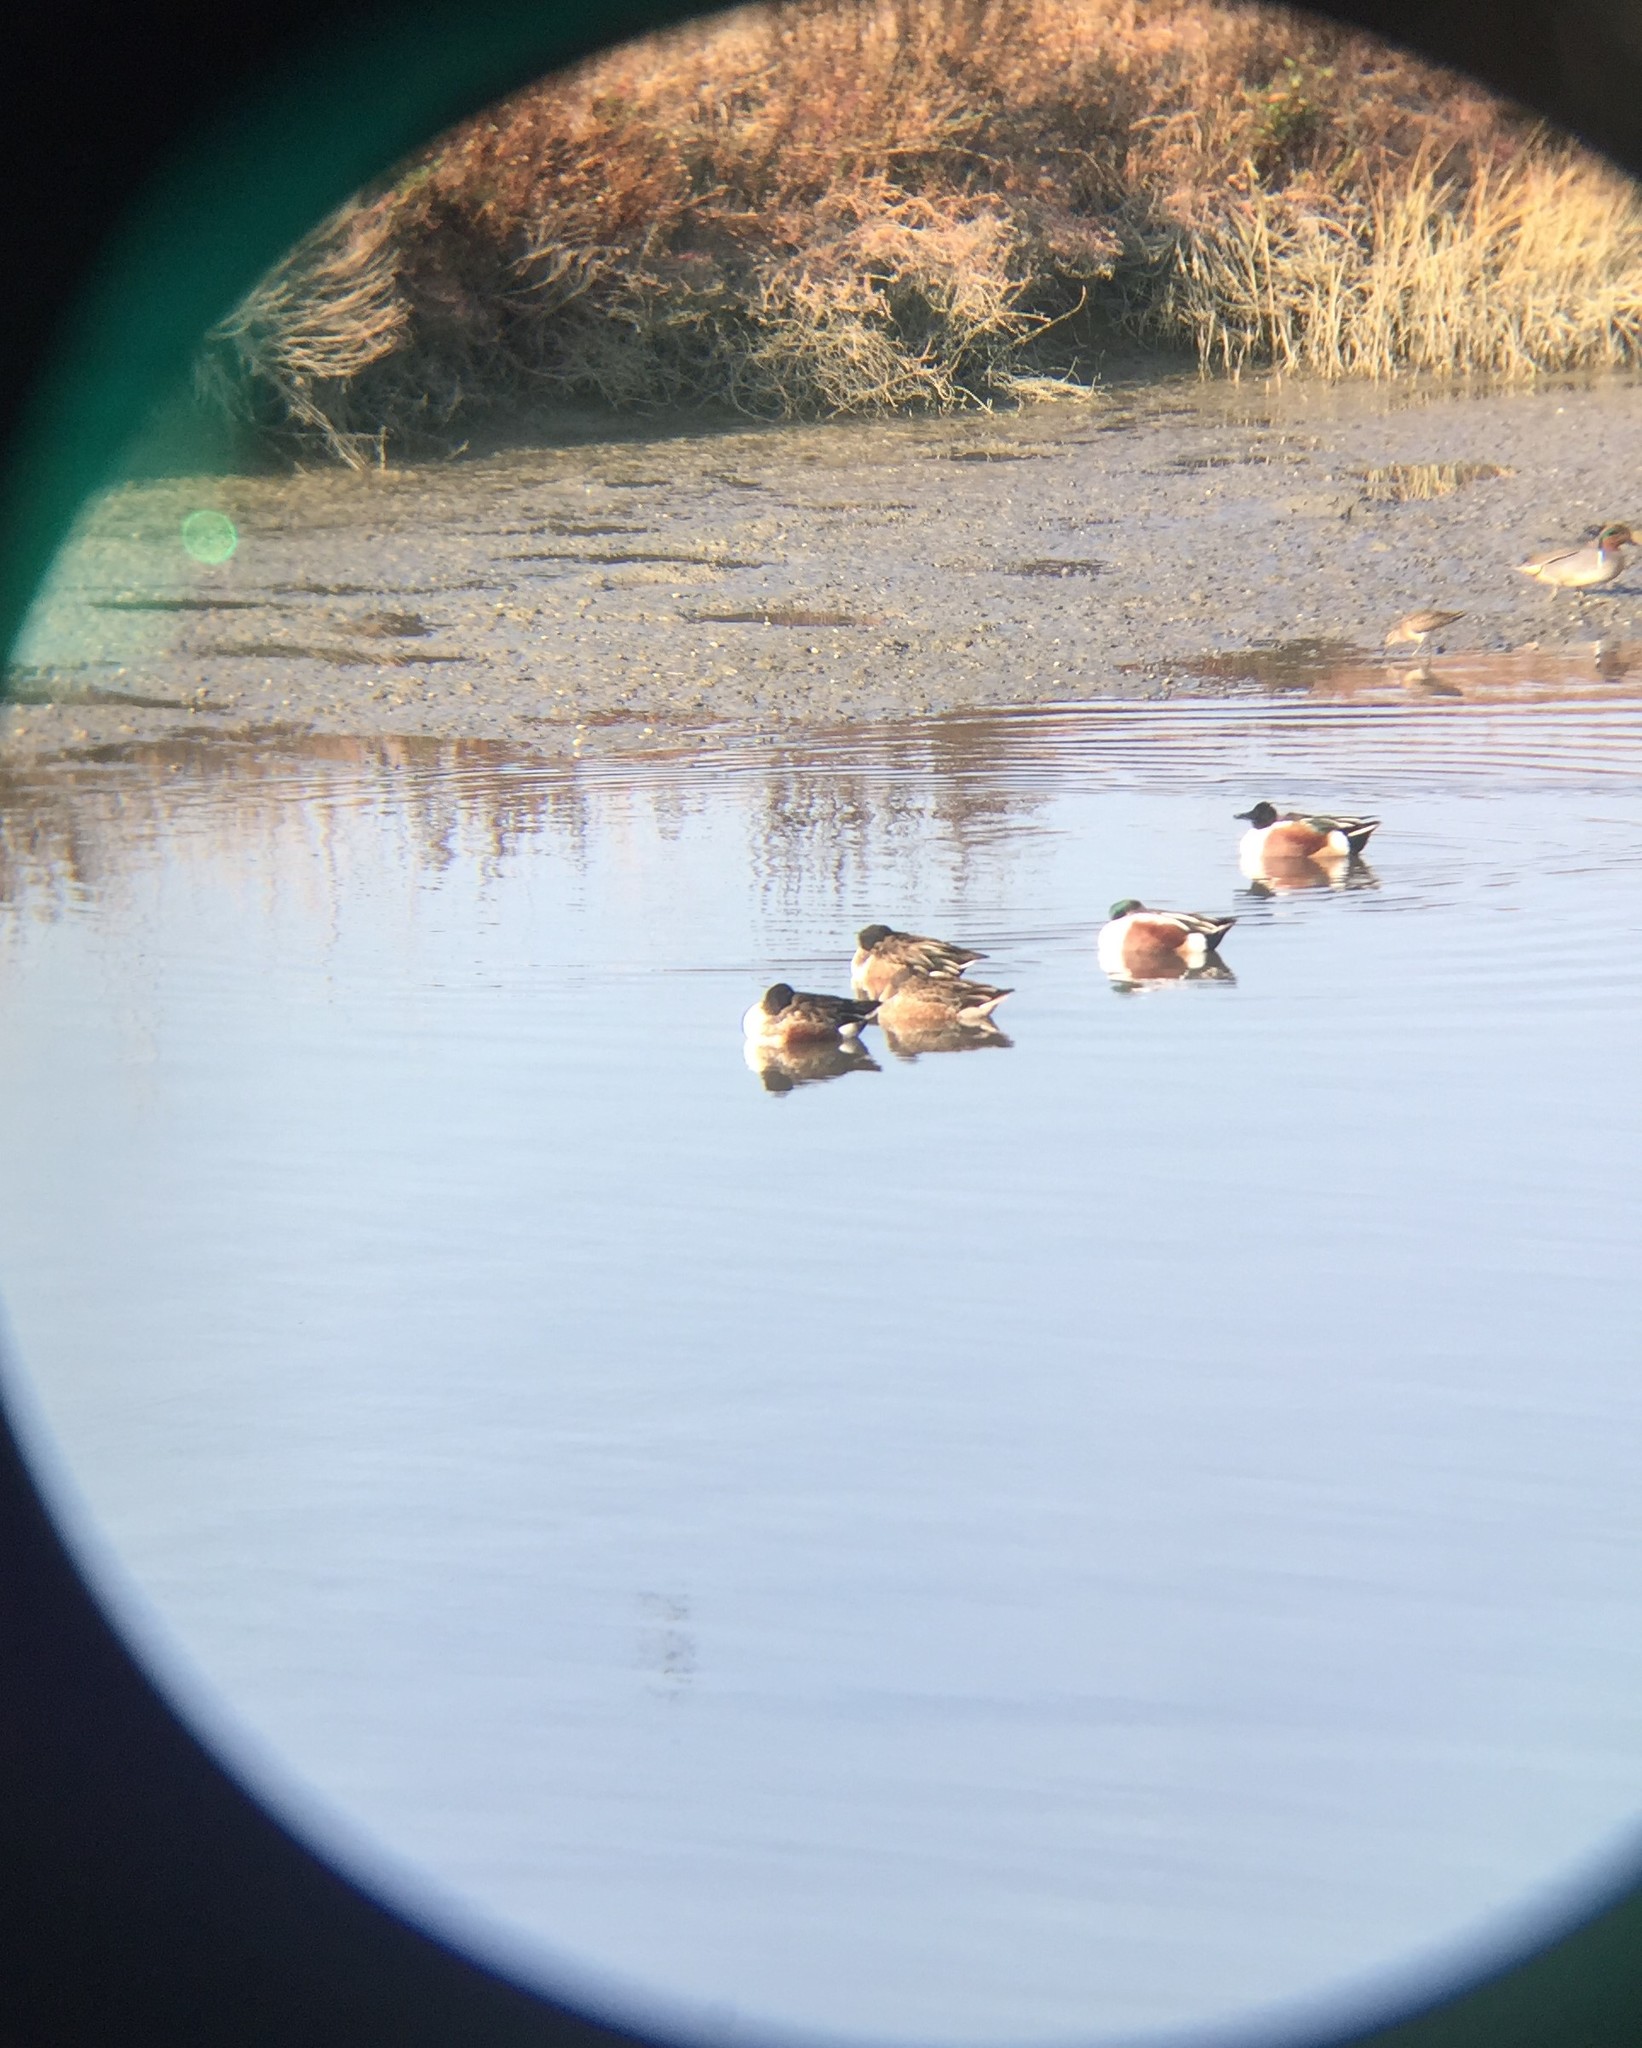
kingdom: Animalia
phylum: Chordata
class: Aves
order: Anseriformes
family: Anatidae
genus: Spatula
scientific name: Spatula clypeata
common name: Northern shoveler
